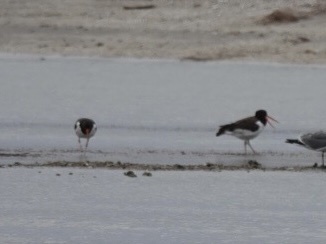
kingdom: Animalia
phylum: Chordata
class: Aves
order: Charadriiformes
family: Haematopodidae
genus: Haematopus
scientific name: Haematopus palliatus
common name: American oystercatcher
